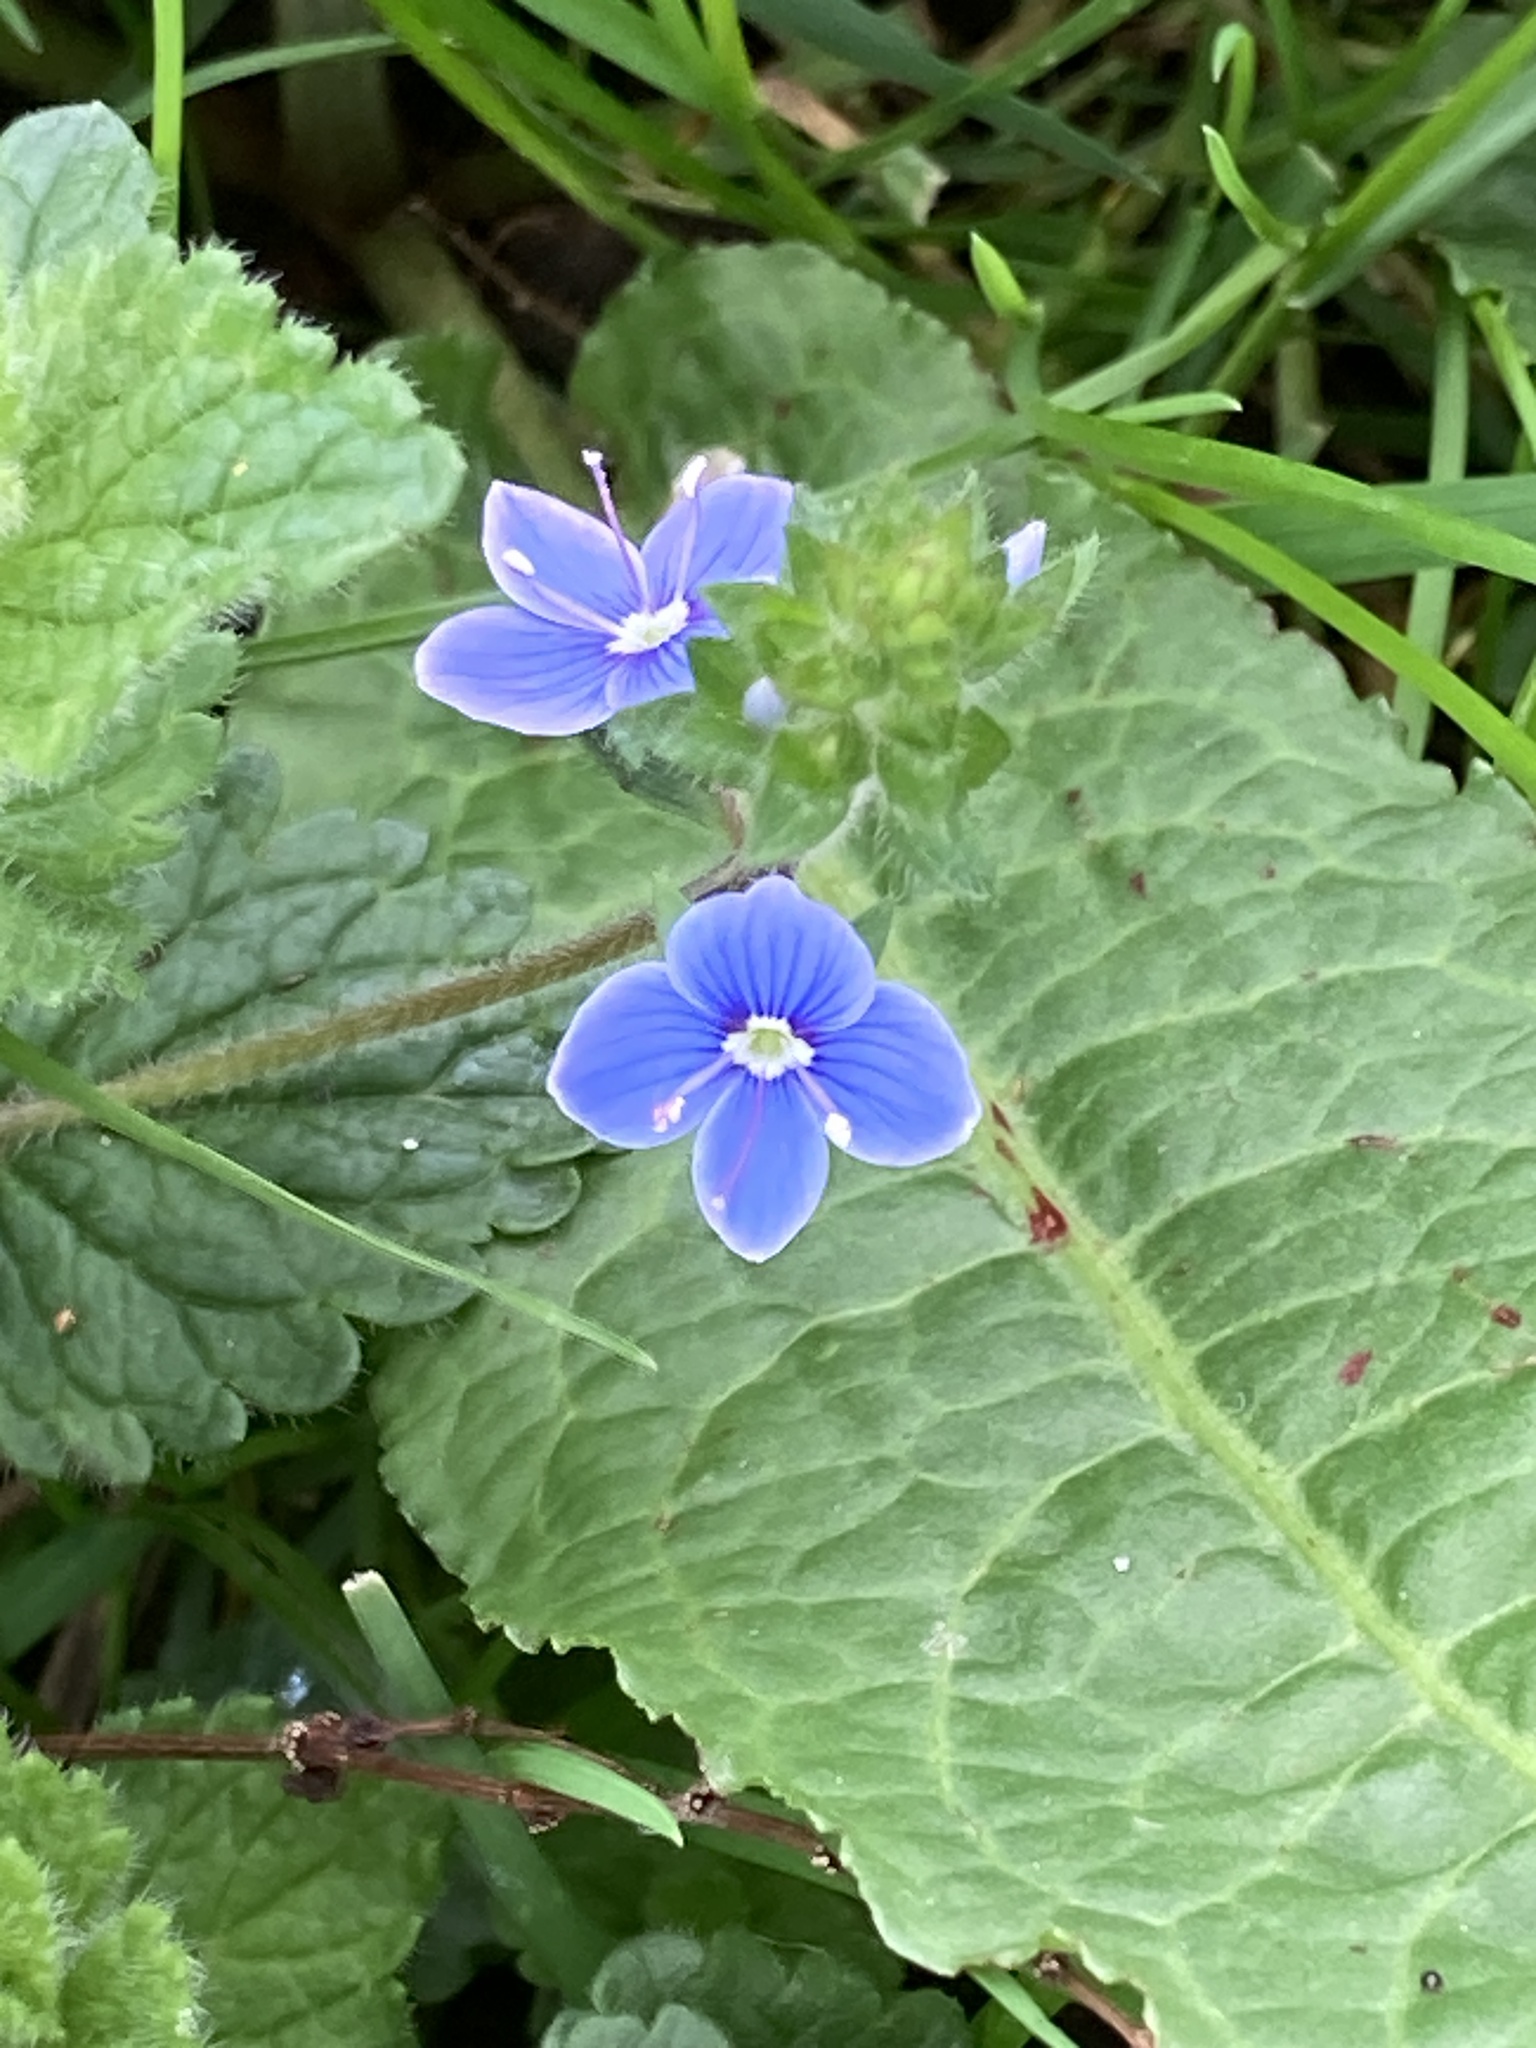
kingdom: Plantae
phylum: Tracheophyta
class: Magnoliopsida
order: Lamiales
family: Plantaginaceae
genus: Veronica
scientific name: Veronica chamaedrys
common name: Germander speedwell
